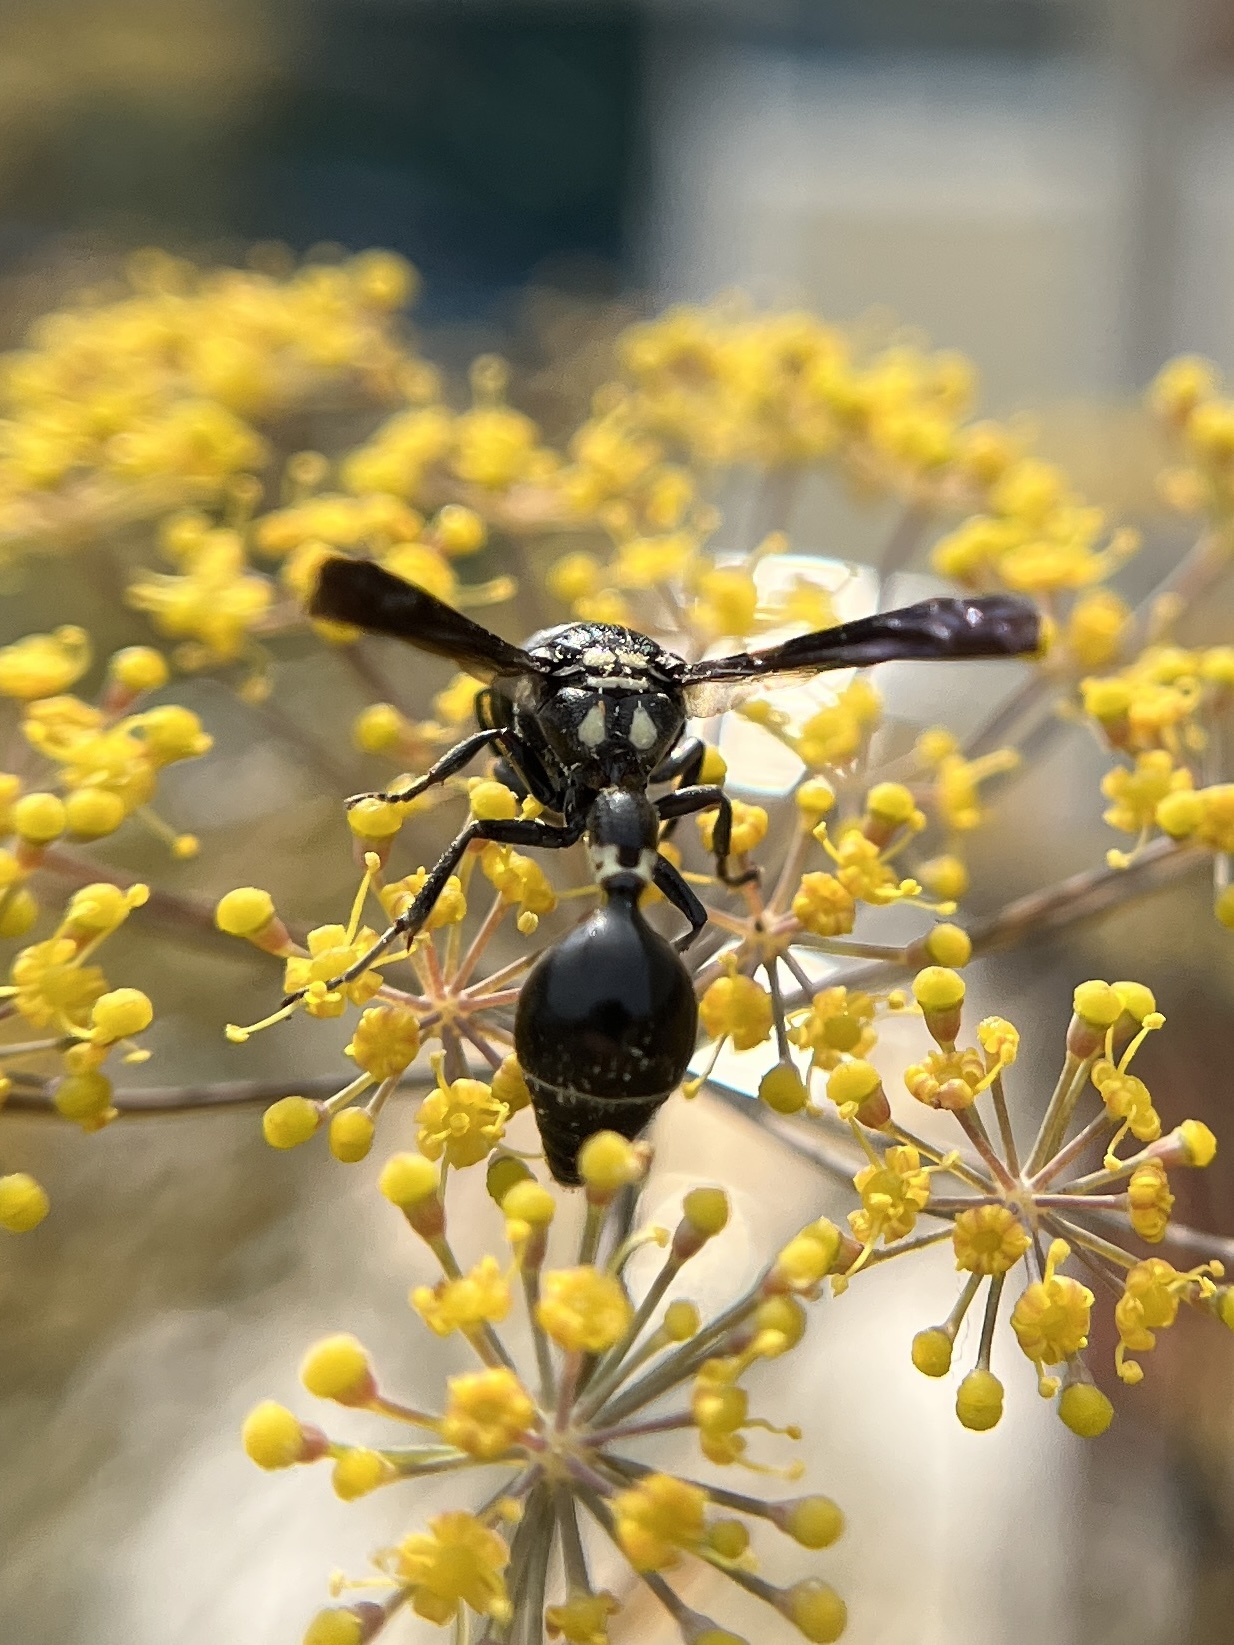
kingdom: Animalia
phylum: Arthropoda
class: Insecta
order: Hymenoptera
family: Eumenidae
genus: Zethus
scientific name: Zethus spinipes
